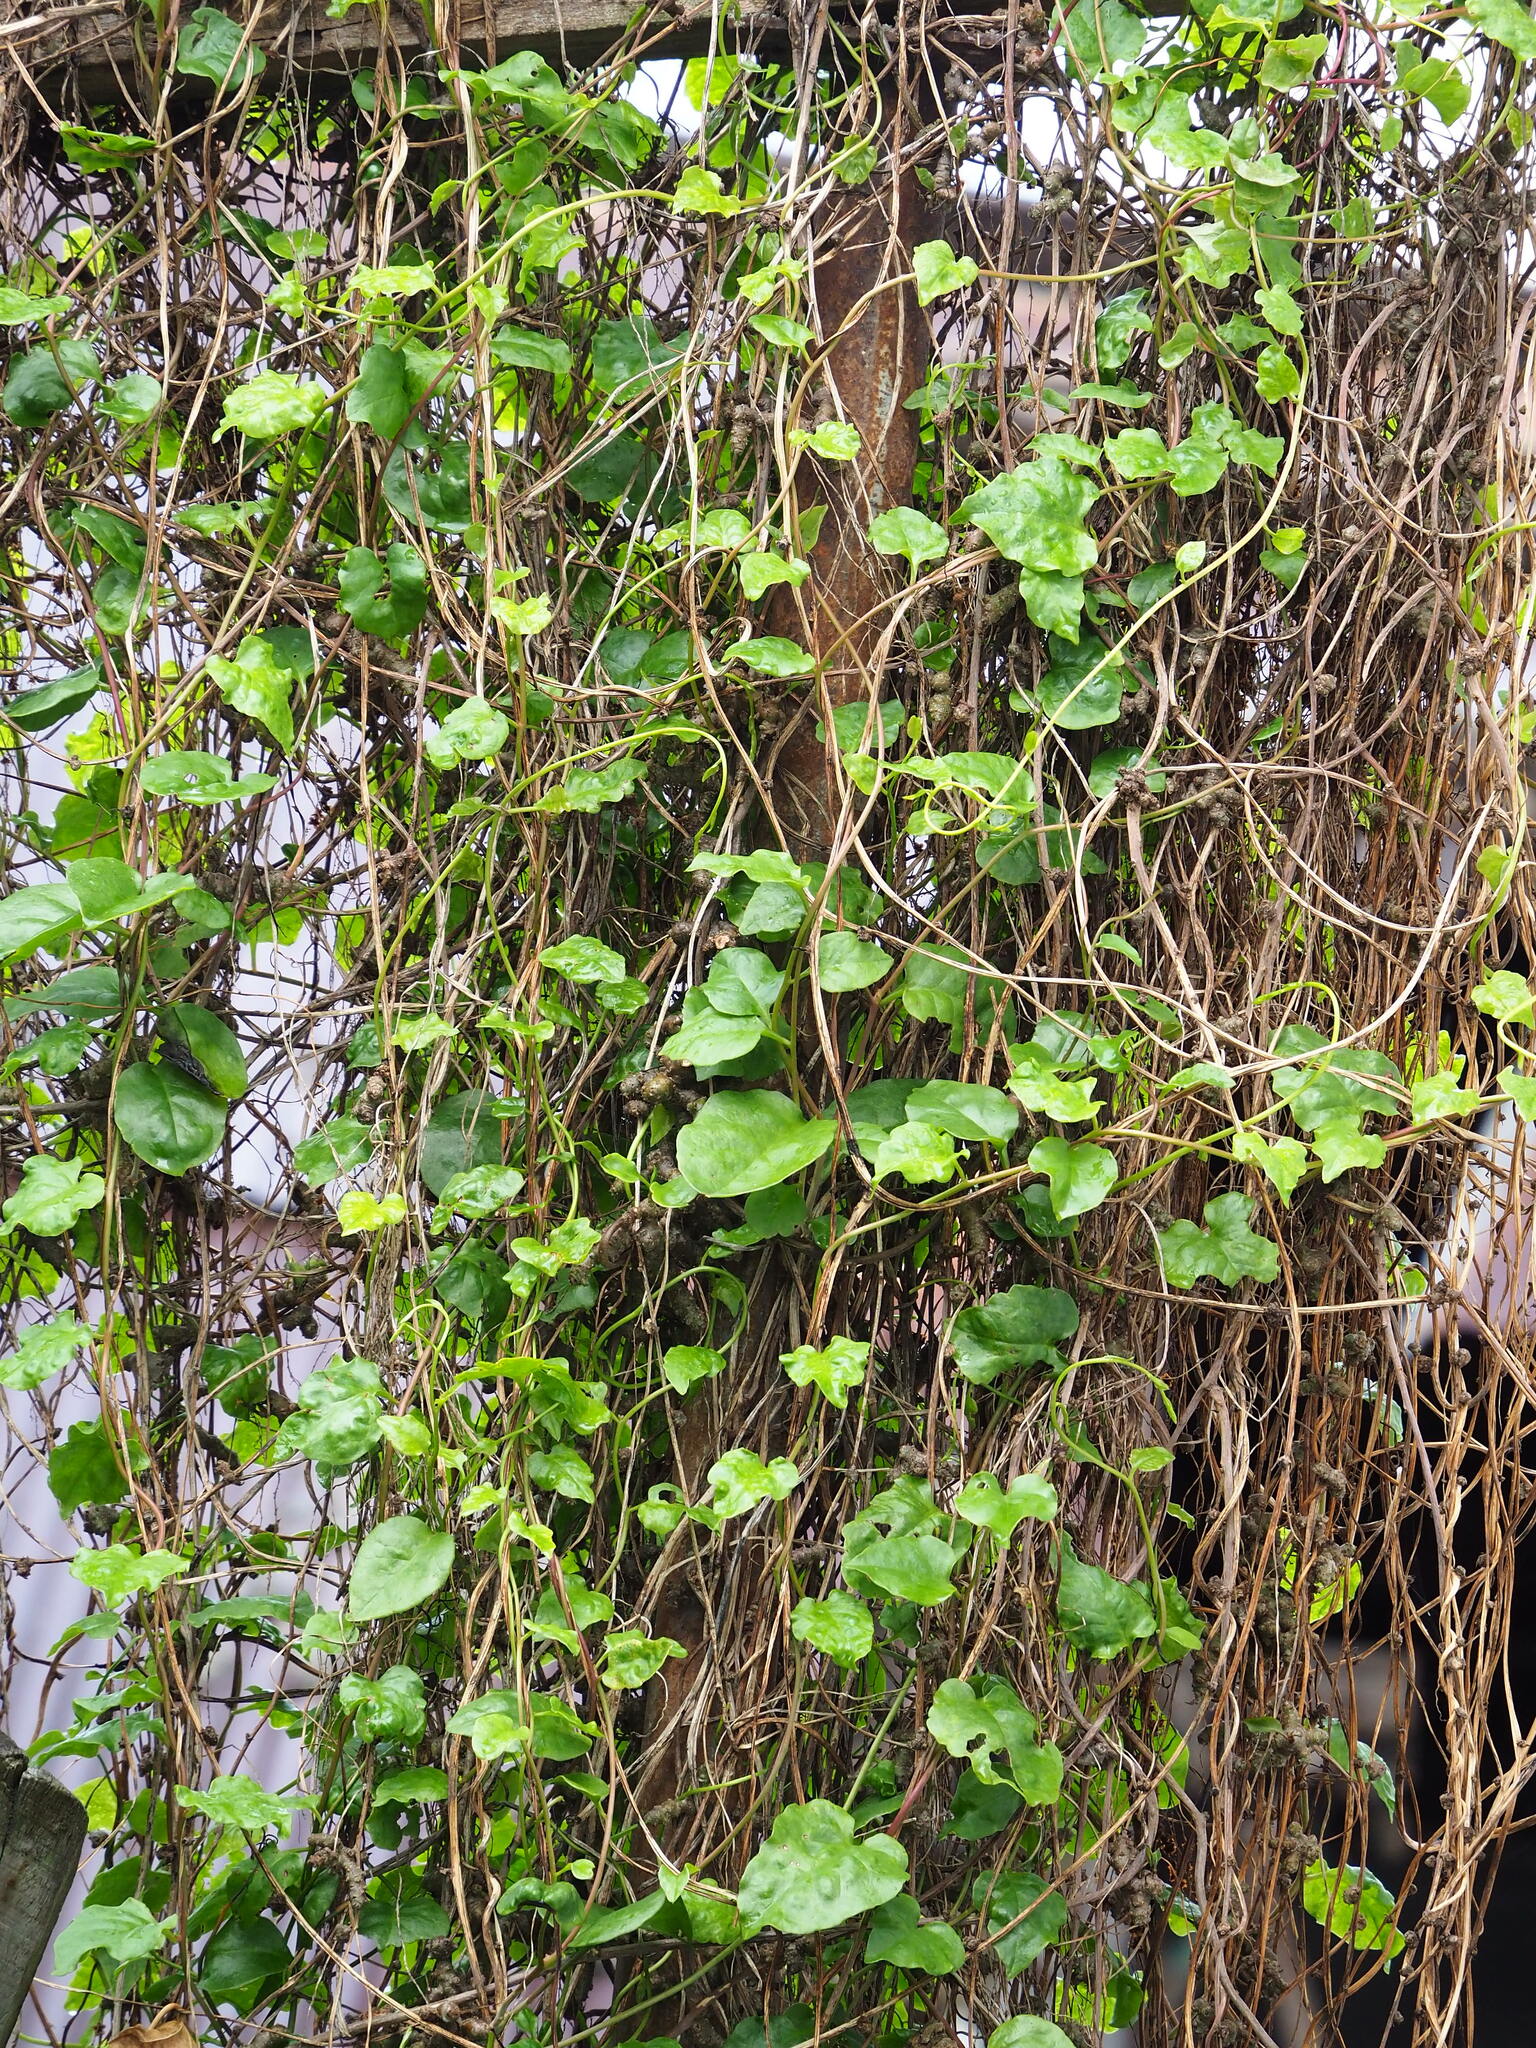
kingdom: Plantae
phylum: Tracheophyta
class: Magnoliopsida
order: Caryophyllales
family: Basellaceae
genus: Anredera
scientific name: Anredera cordifolia
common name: Heartleaf madeiravine
